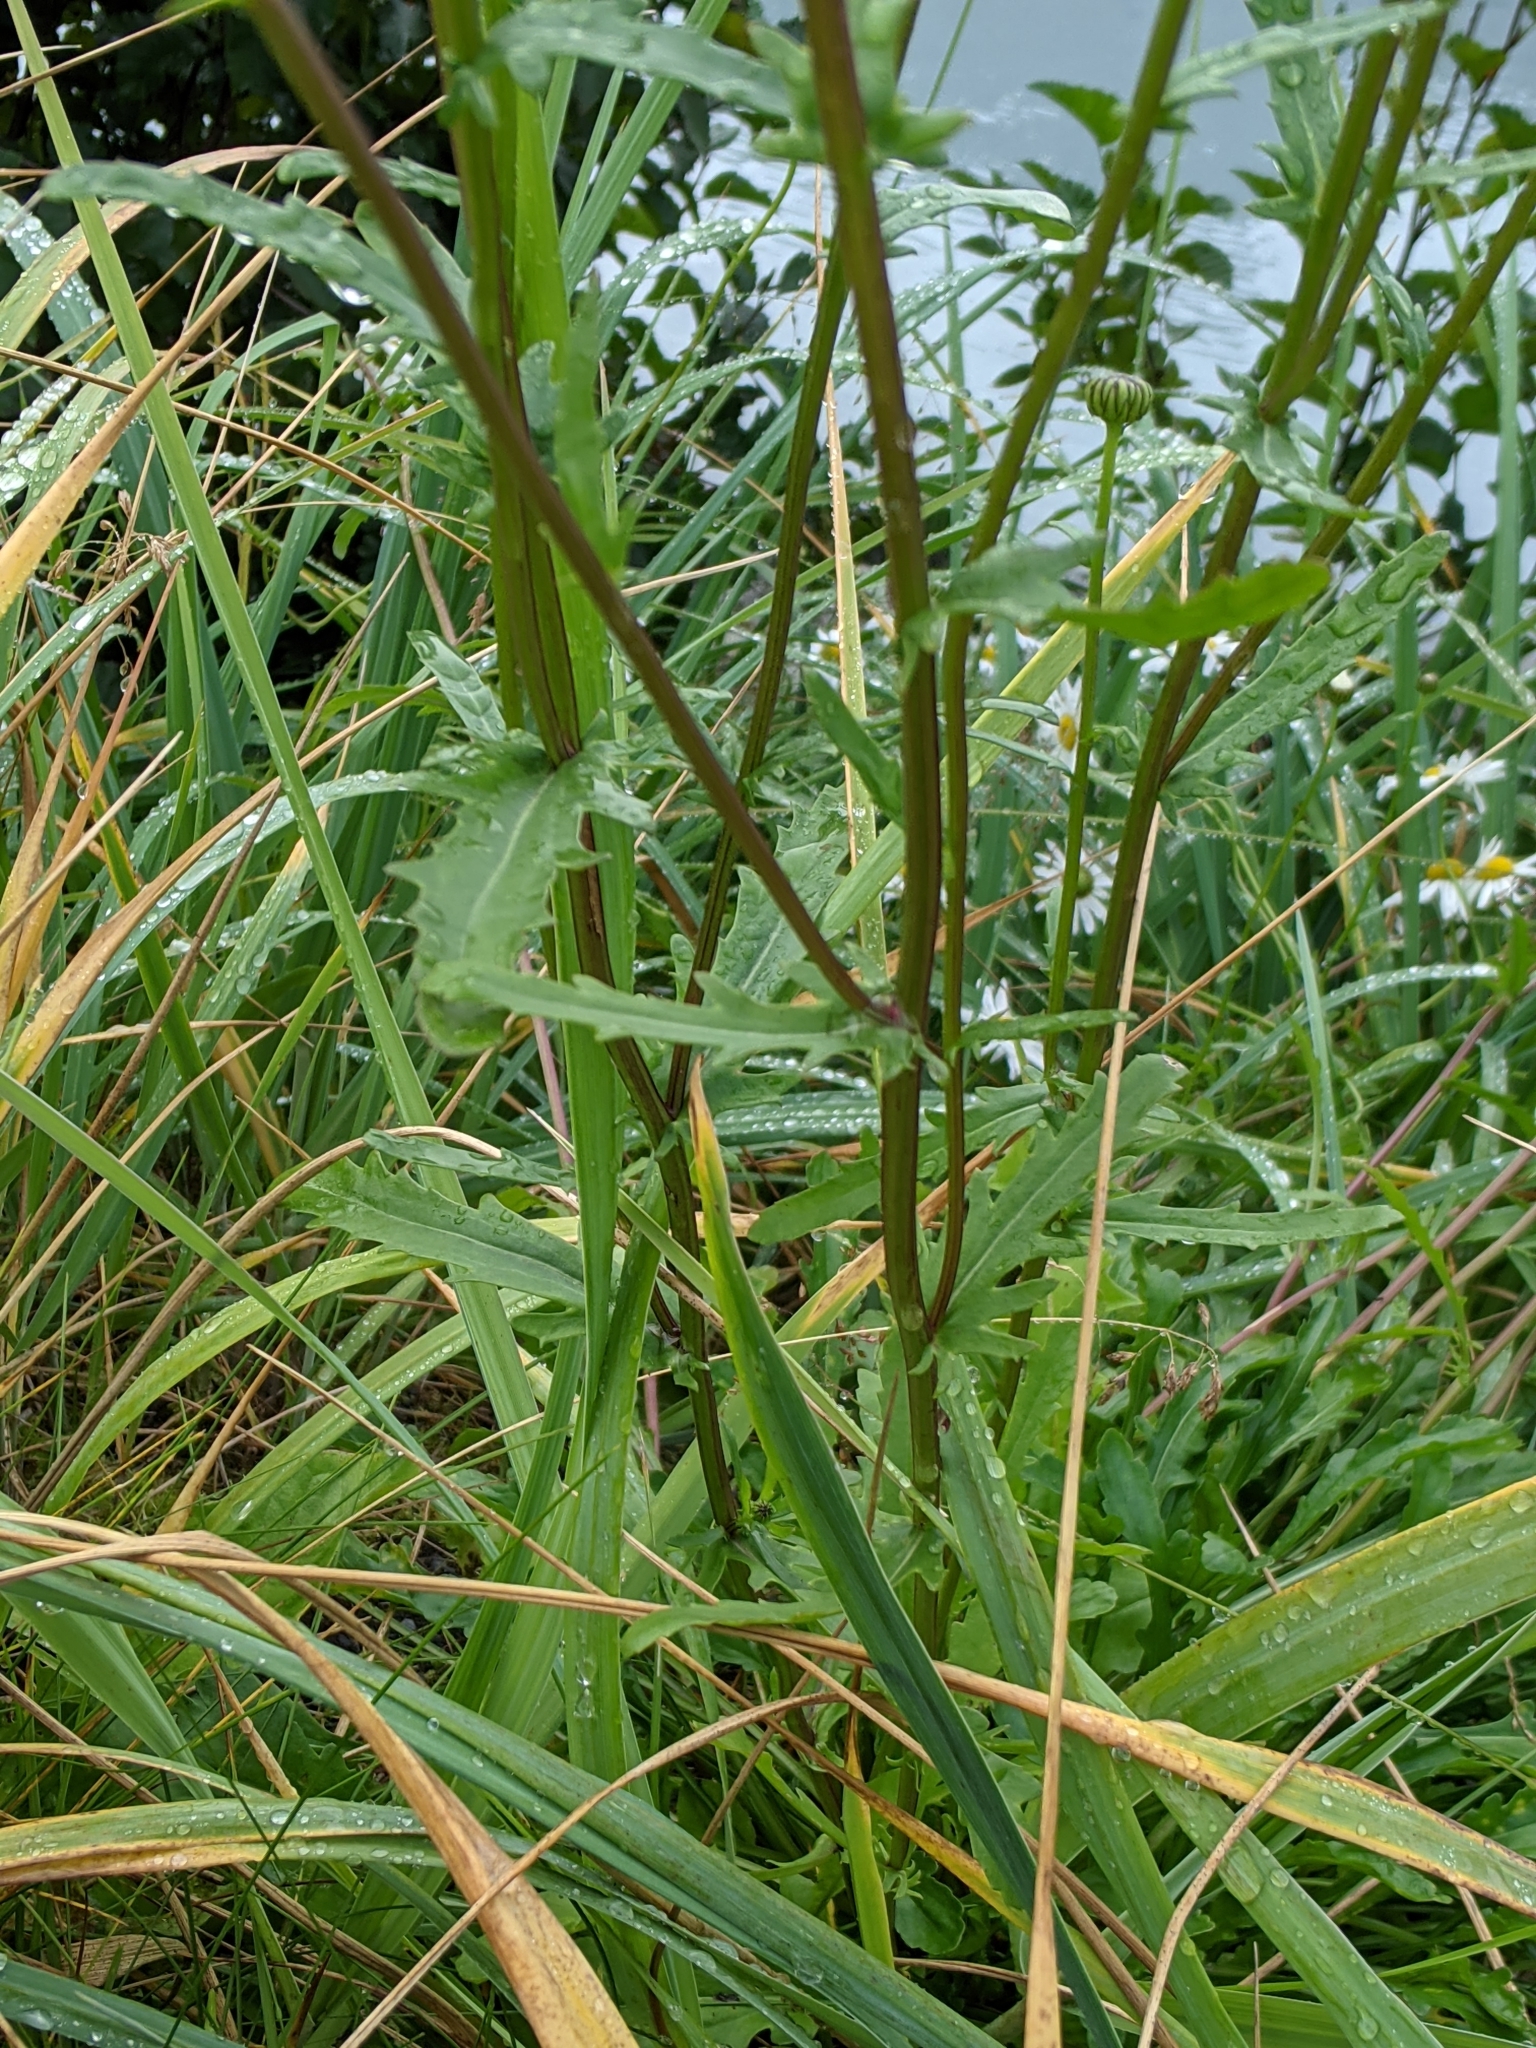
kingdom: Plantae
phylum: Tracheophyta
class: Magnoliopsida
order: Asterales
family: Asteraceae
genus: Leucanthemum
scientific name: Leucanthemum vulgare
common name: Oxeye daisy
